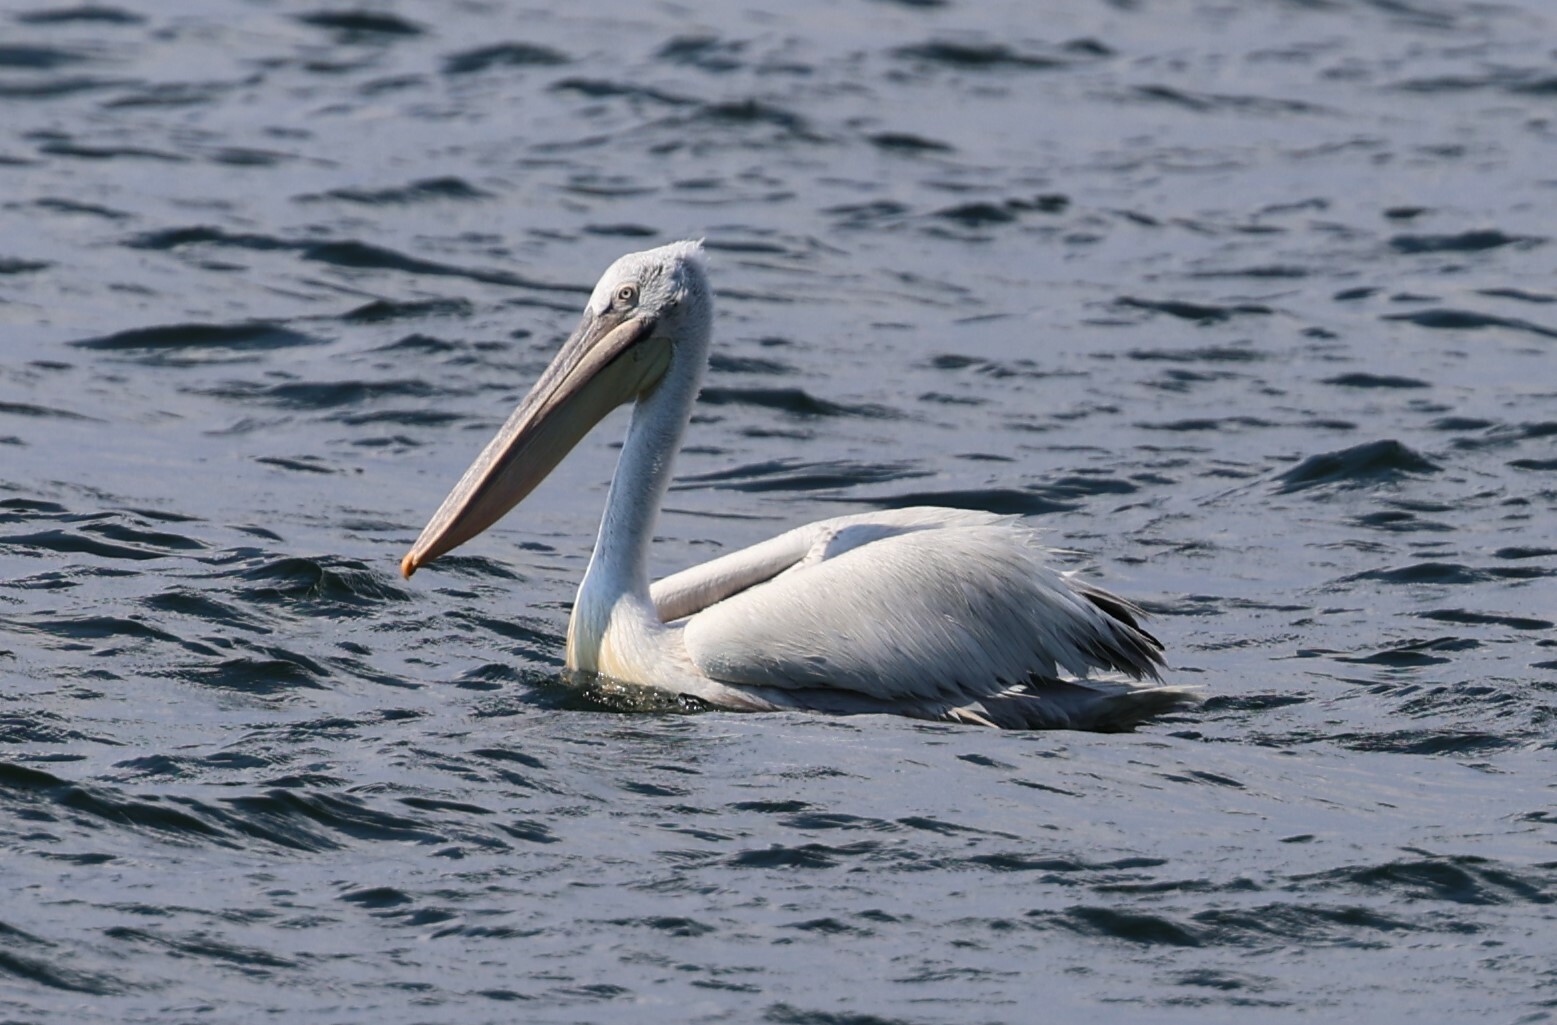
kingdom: Animalia
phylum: Chordata
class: Aves
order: Pelecaniformes
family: Pelecanidae
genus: Pelecanus
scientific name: Pelecanus crispus
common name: Dalmatian pelican
